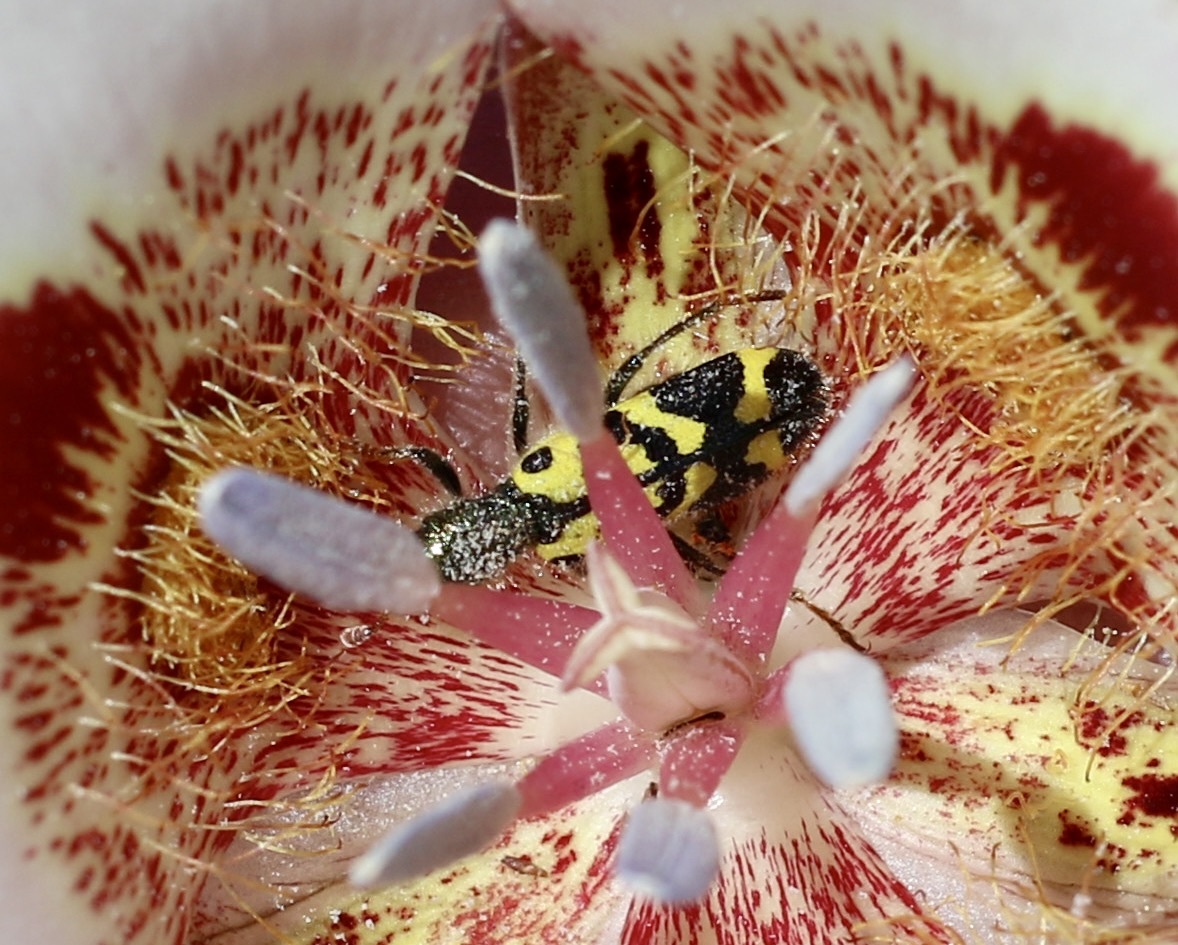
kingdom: Animalia
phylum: Arthropoda
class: Insecta
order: Coleoptera
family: Cleridae
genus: Trichodes
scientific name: Trichodes ornatus
